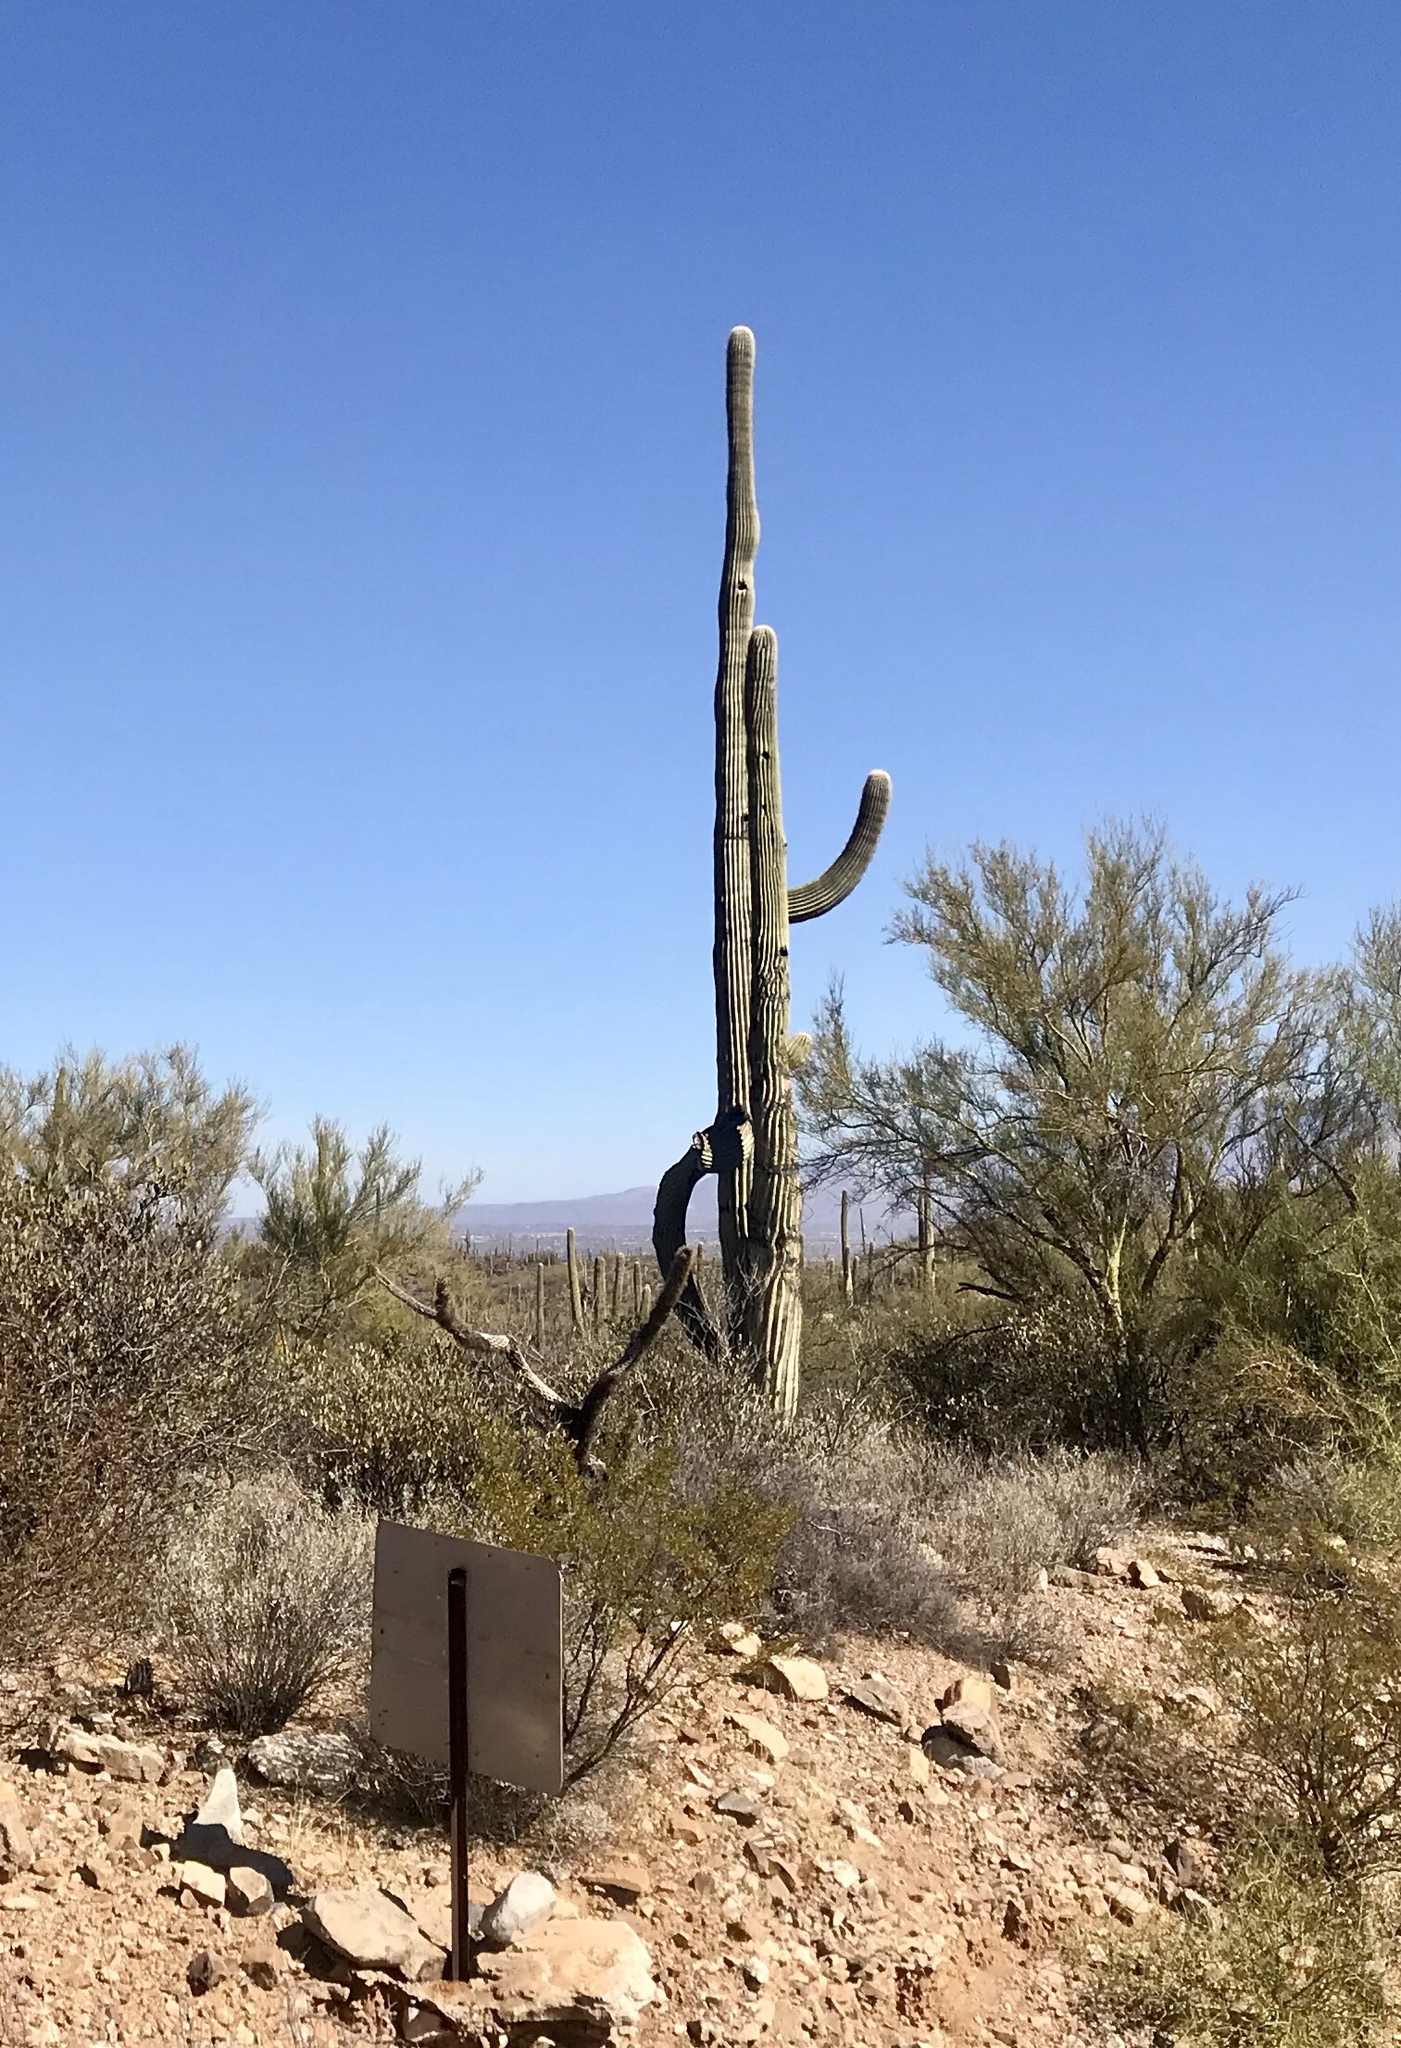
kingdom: Plantae
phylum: Tracheophyta
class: Magnoliopsida
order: Caryophyllales
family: Cactaceae
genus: Carnegiea
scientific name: Carnegiea gigantea
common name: Saguaro
